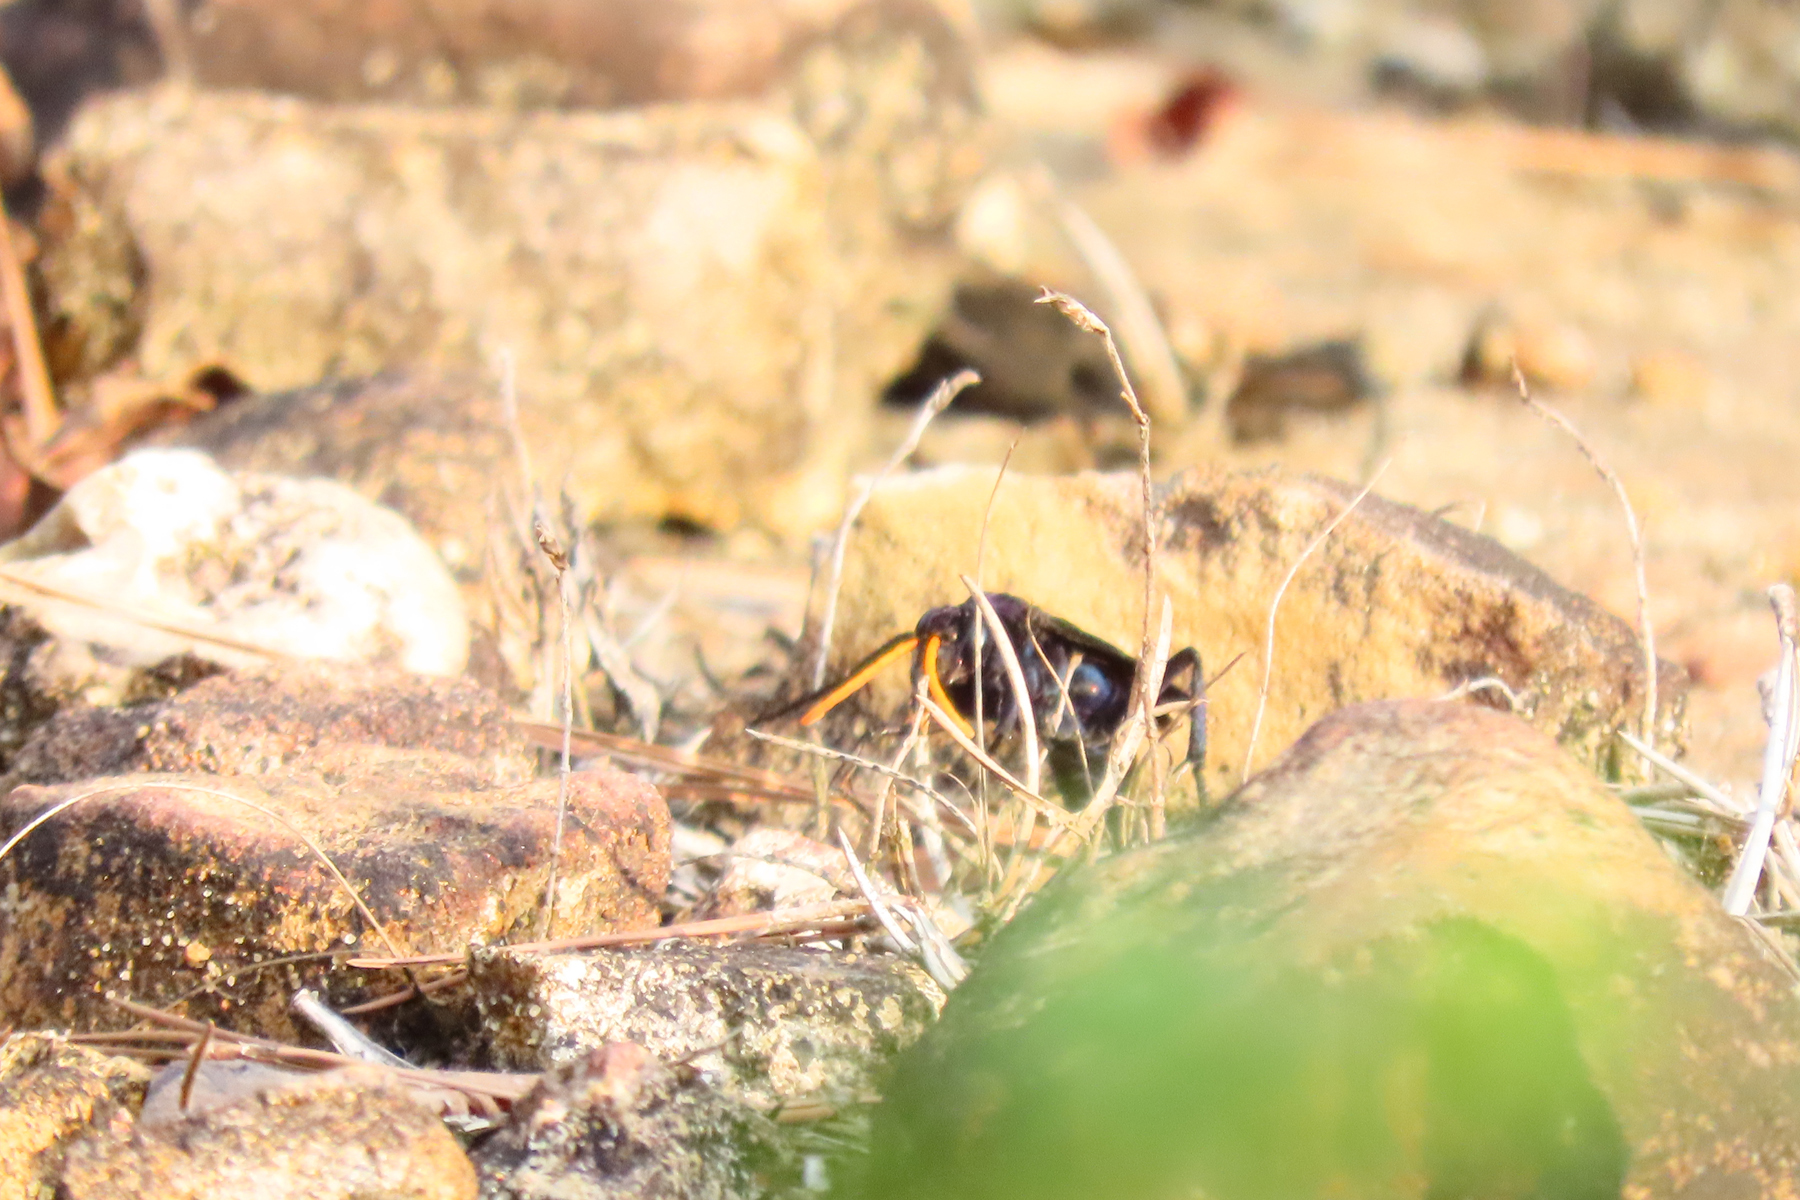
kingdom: Animalia
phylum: Arthropoda
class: Insecta
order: Hymenoptera
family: Pompilidae
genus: Pepsis
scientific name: Pepsis menechma
